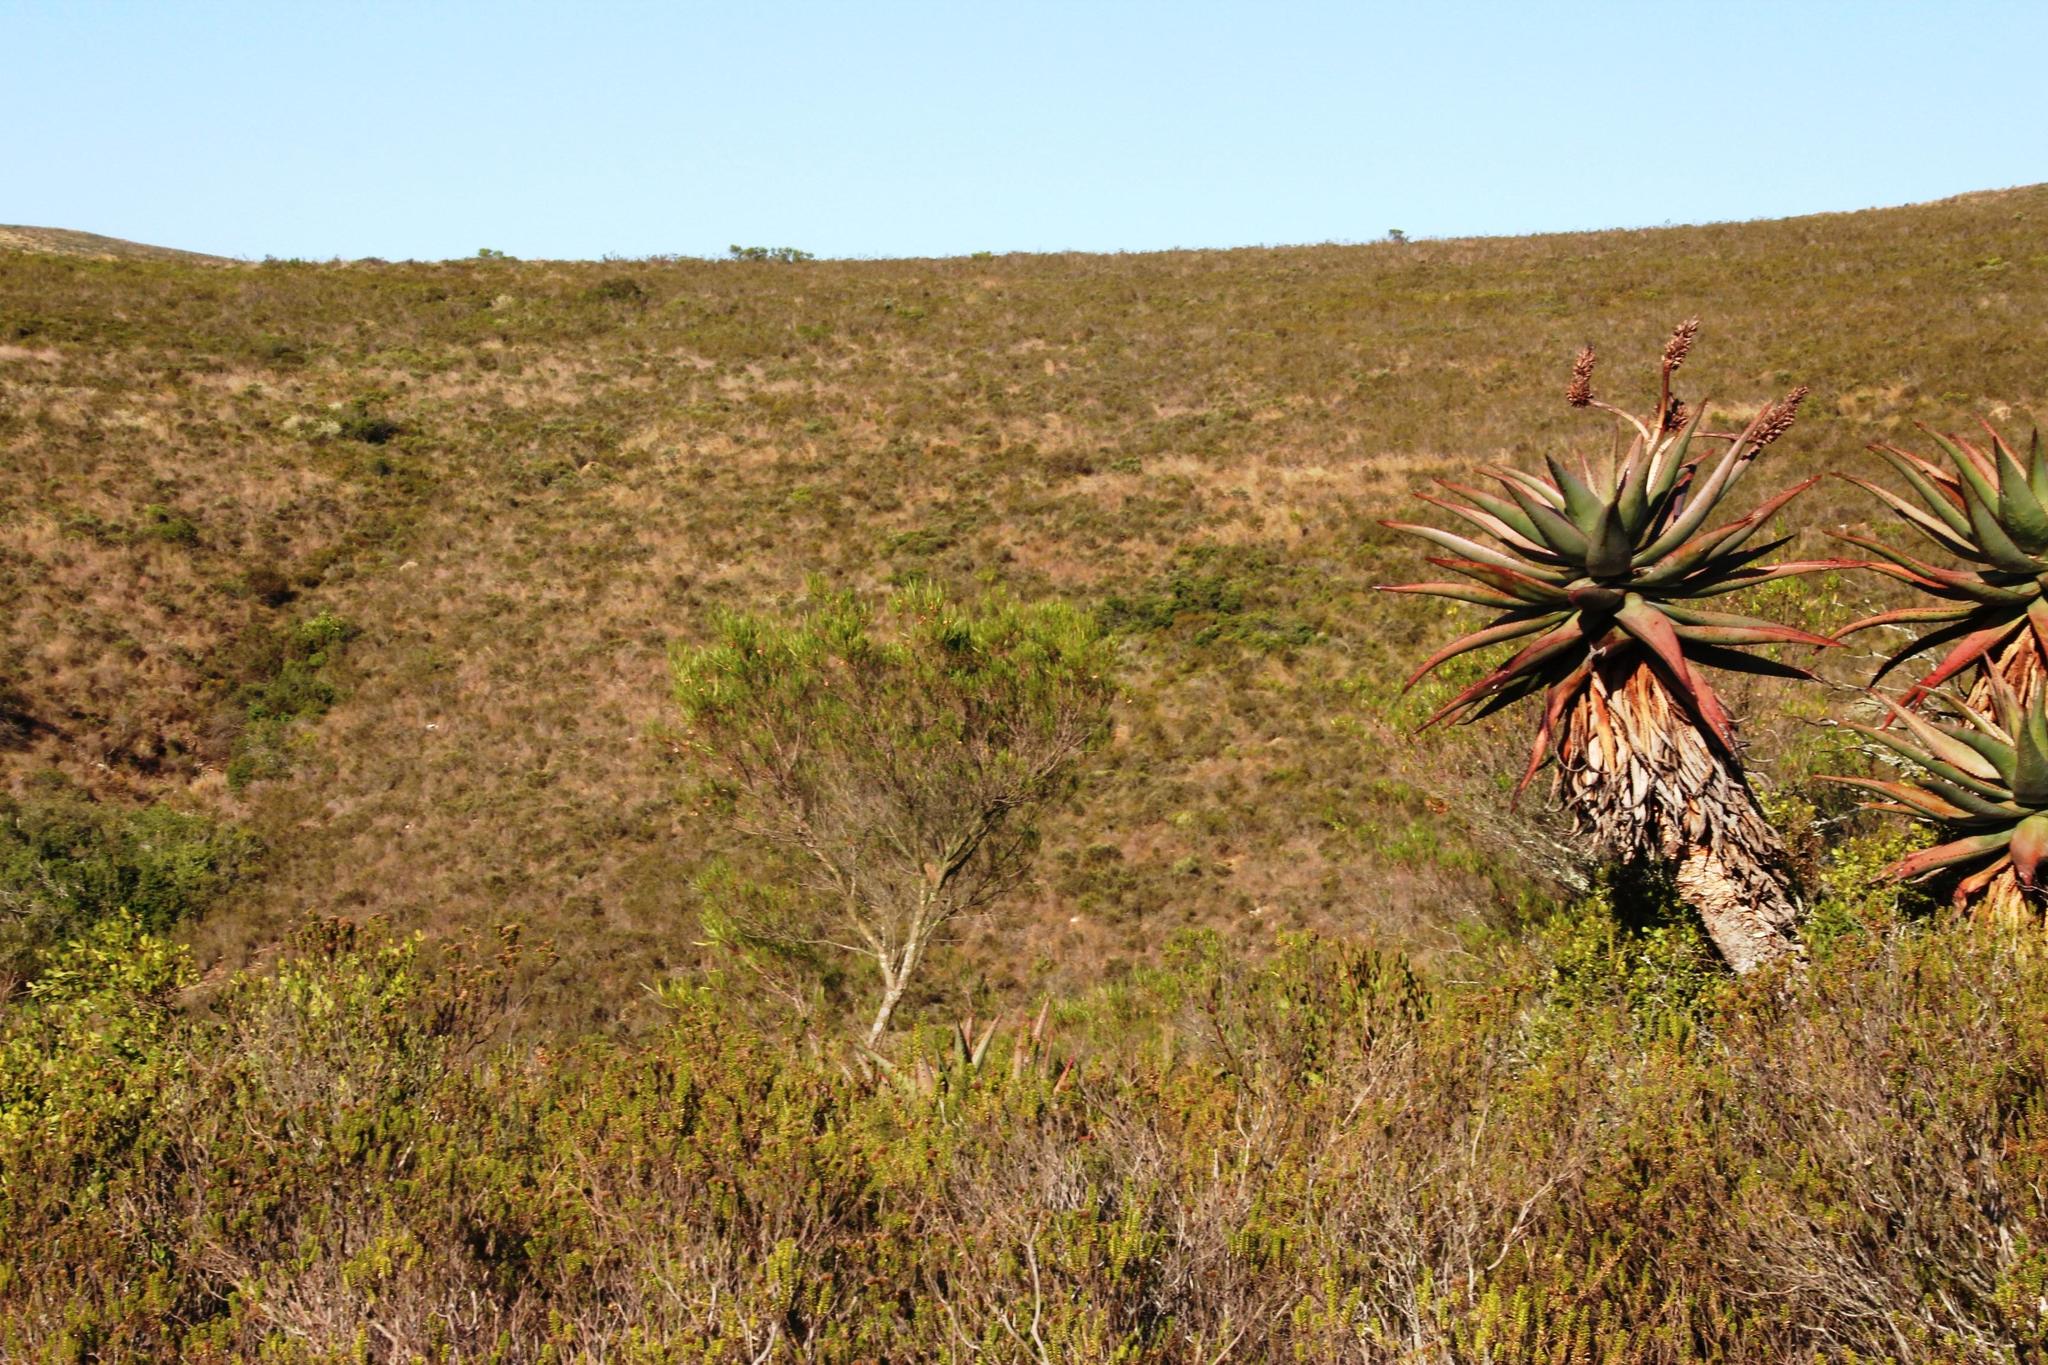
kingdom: Plantae
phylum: Tracheophyta
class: Magnoliopsida
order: Sapindales
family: Sapindaceae
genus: Dodonaea
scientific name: Dodonaea viscosa
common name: Hopbush
